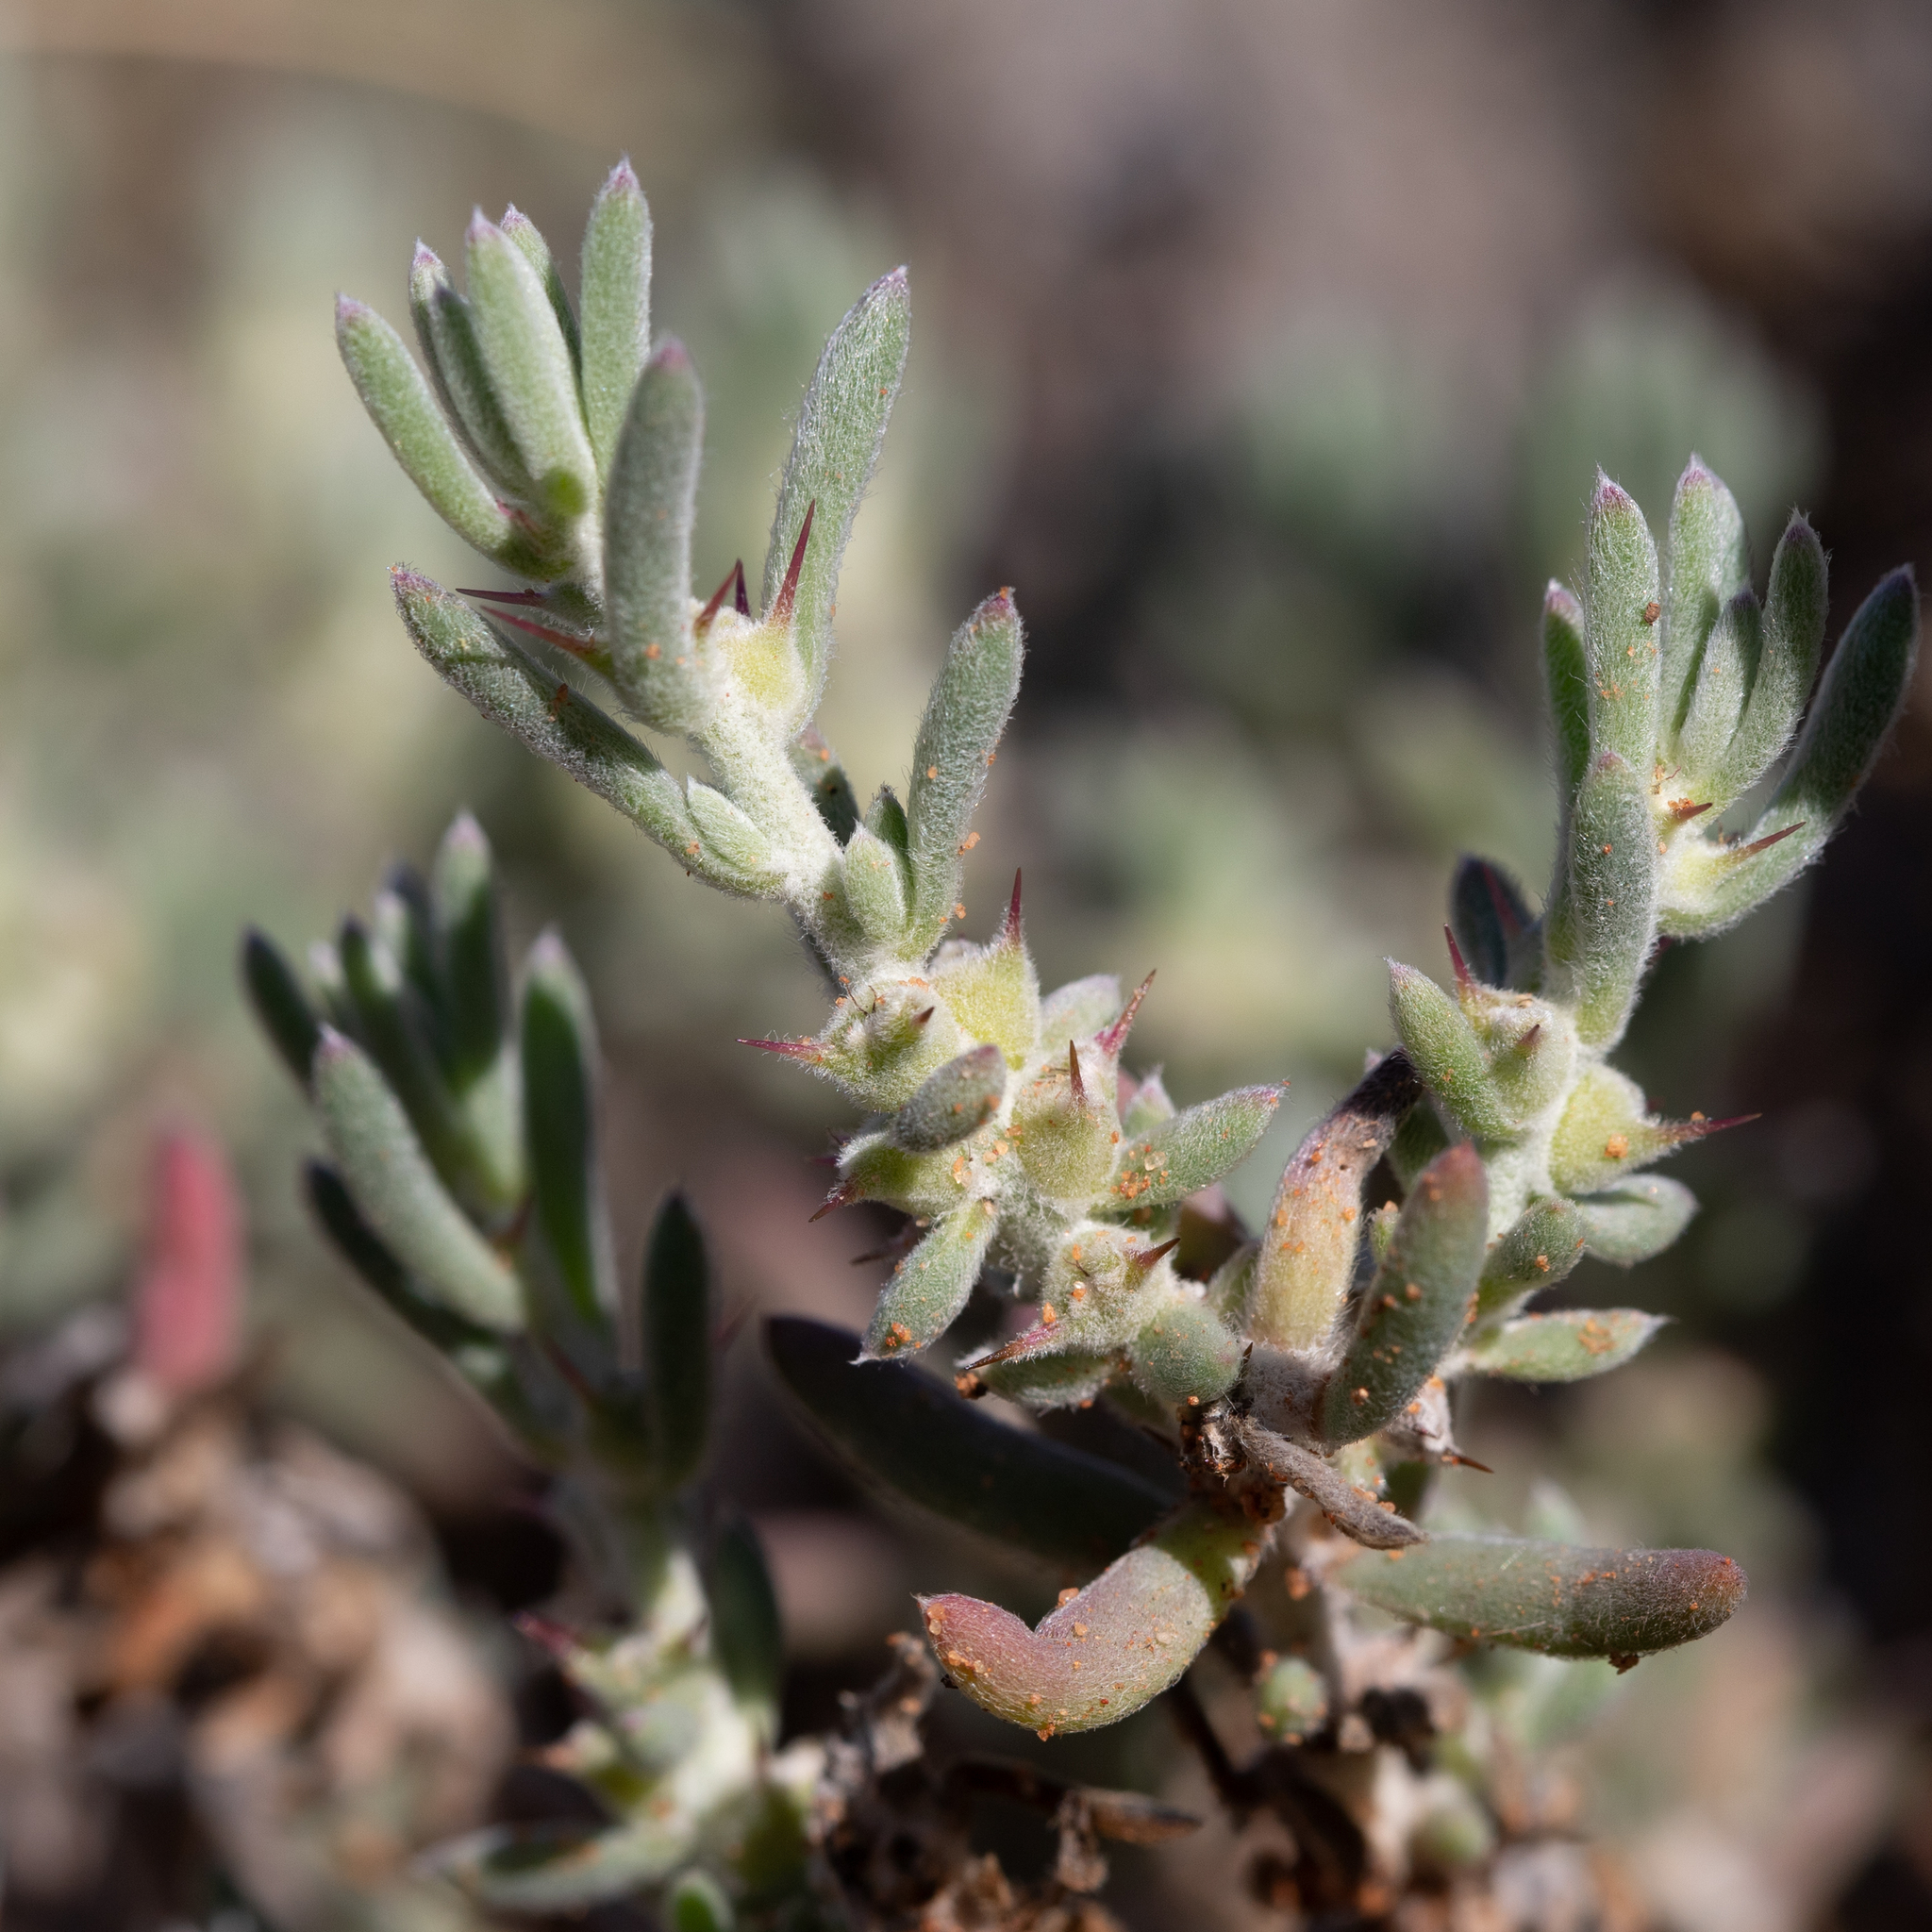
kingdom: Plantae
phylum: Tracheophyta
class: Magnoliopsida
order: Caryophyllales
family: Amaranthaceae
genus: Sclerolaena
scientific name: Sclerolaena diacantha
